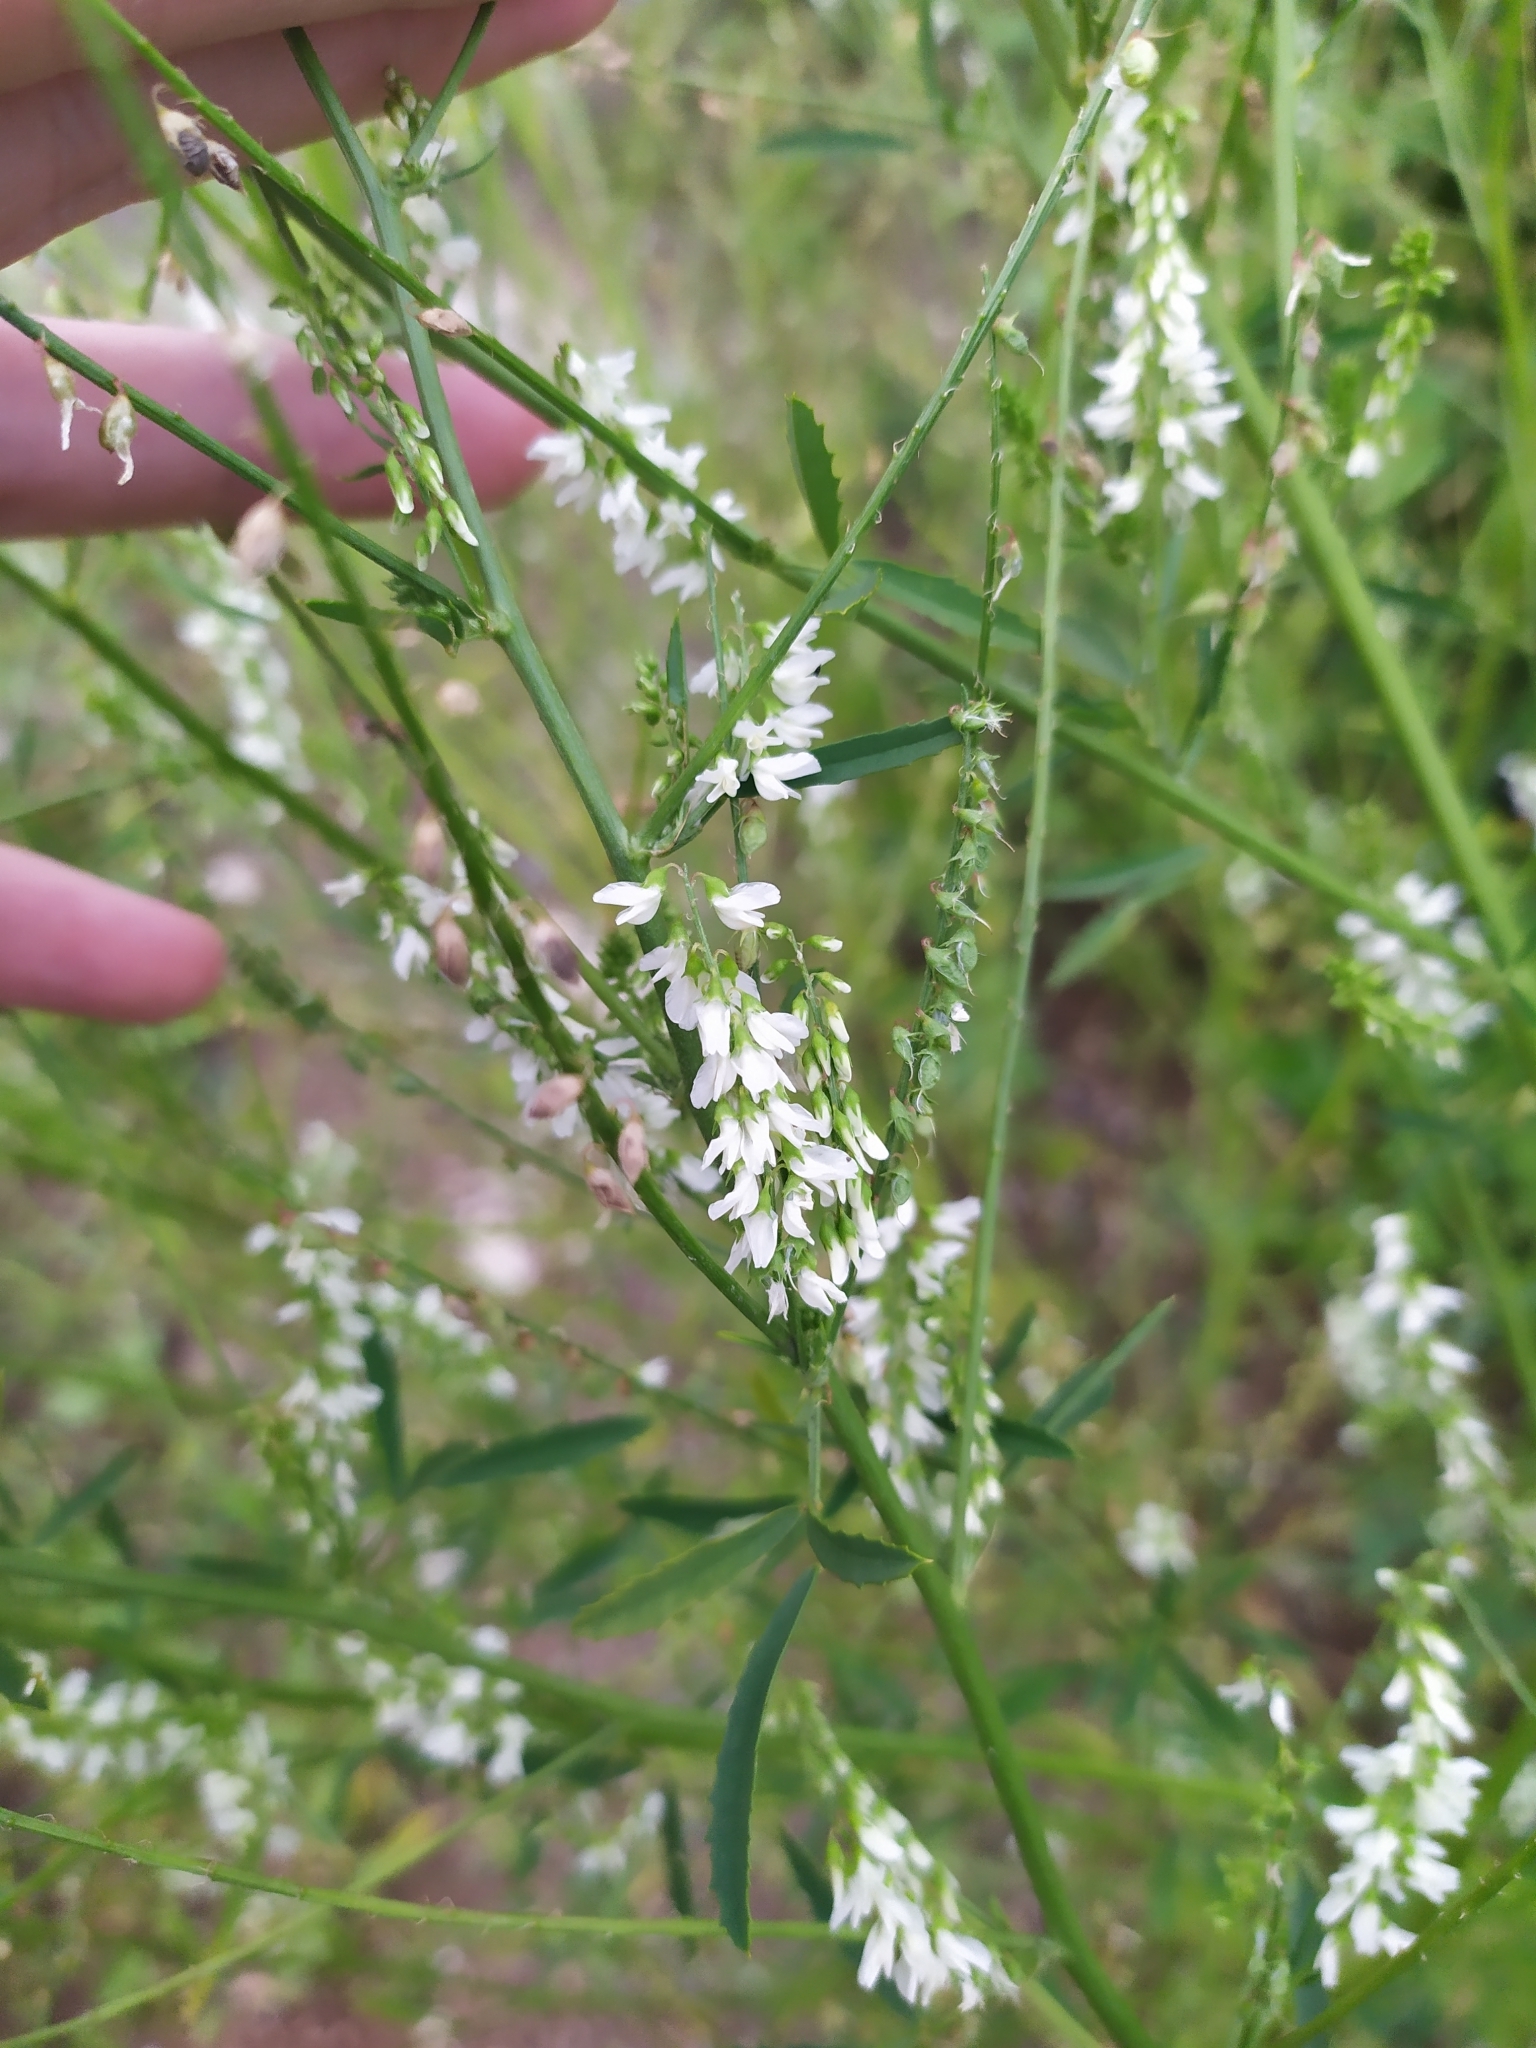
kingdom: Plantae
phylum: Tracheophyta
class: Magnoliopsida
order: Fabales
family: Fabaceae
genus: Melilotus
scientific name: Melilotus albus
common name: White melilot
